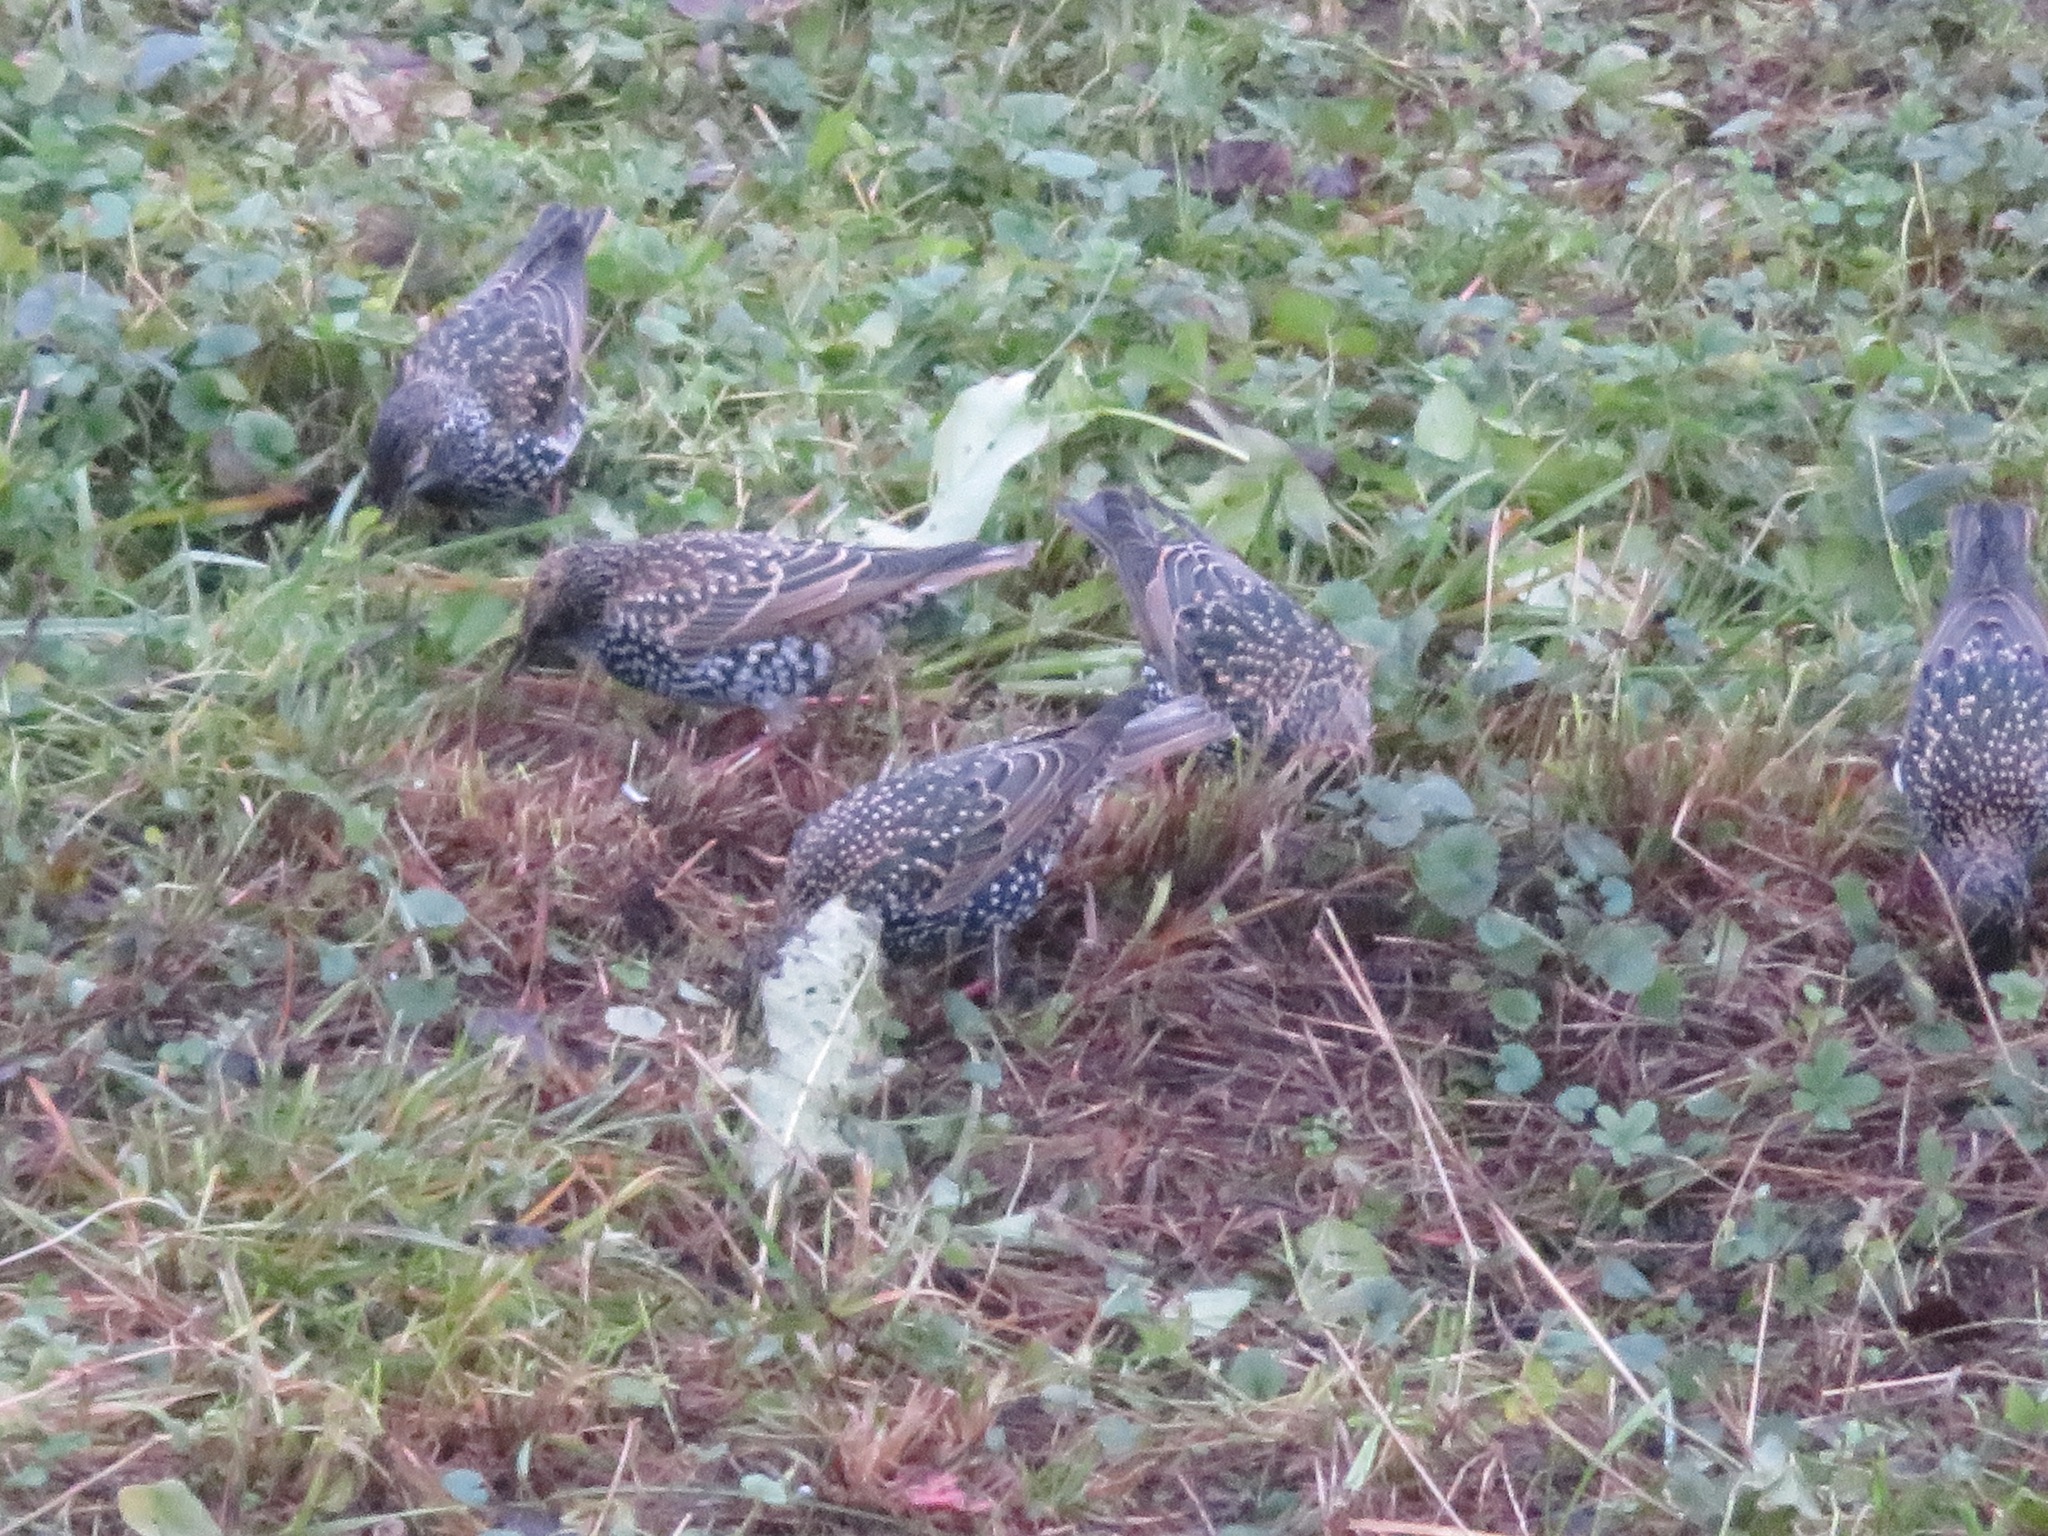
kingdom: Animalia
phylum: Chordata
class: Aves
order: Passeriformes
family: Sturnidae
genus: Sturnus
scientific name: Sturnus vulgaris
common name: Common starling
